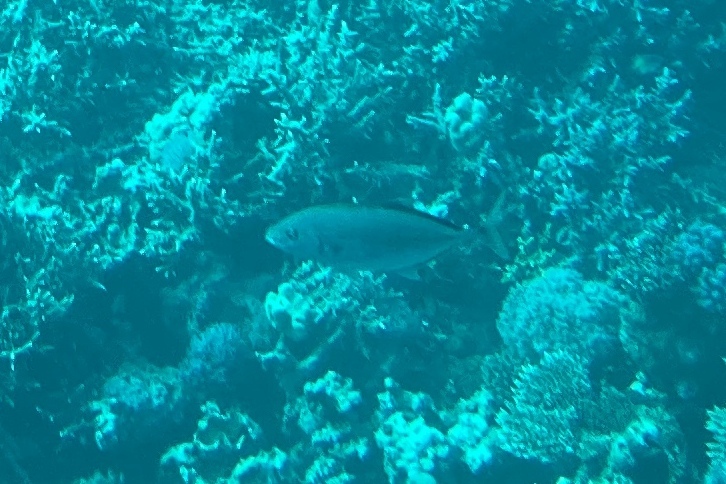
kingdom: Animalia
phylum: Chordata
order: Perciformes
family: Carangidae
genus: Flavocaranx
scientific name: Flavocaranx bajad
